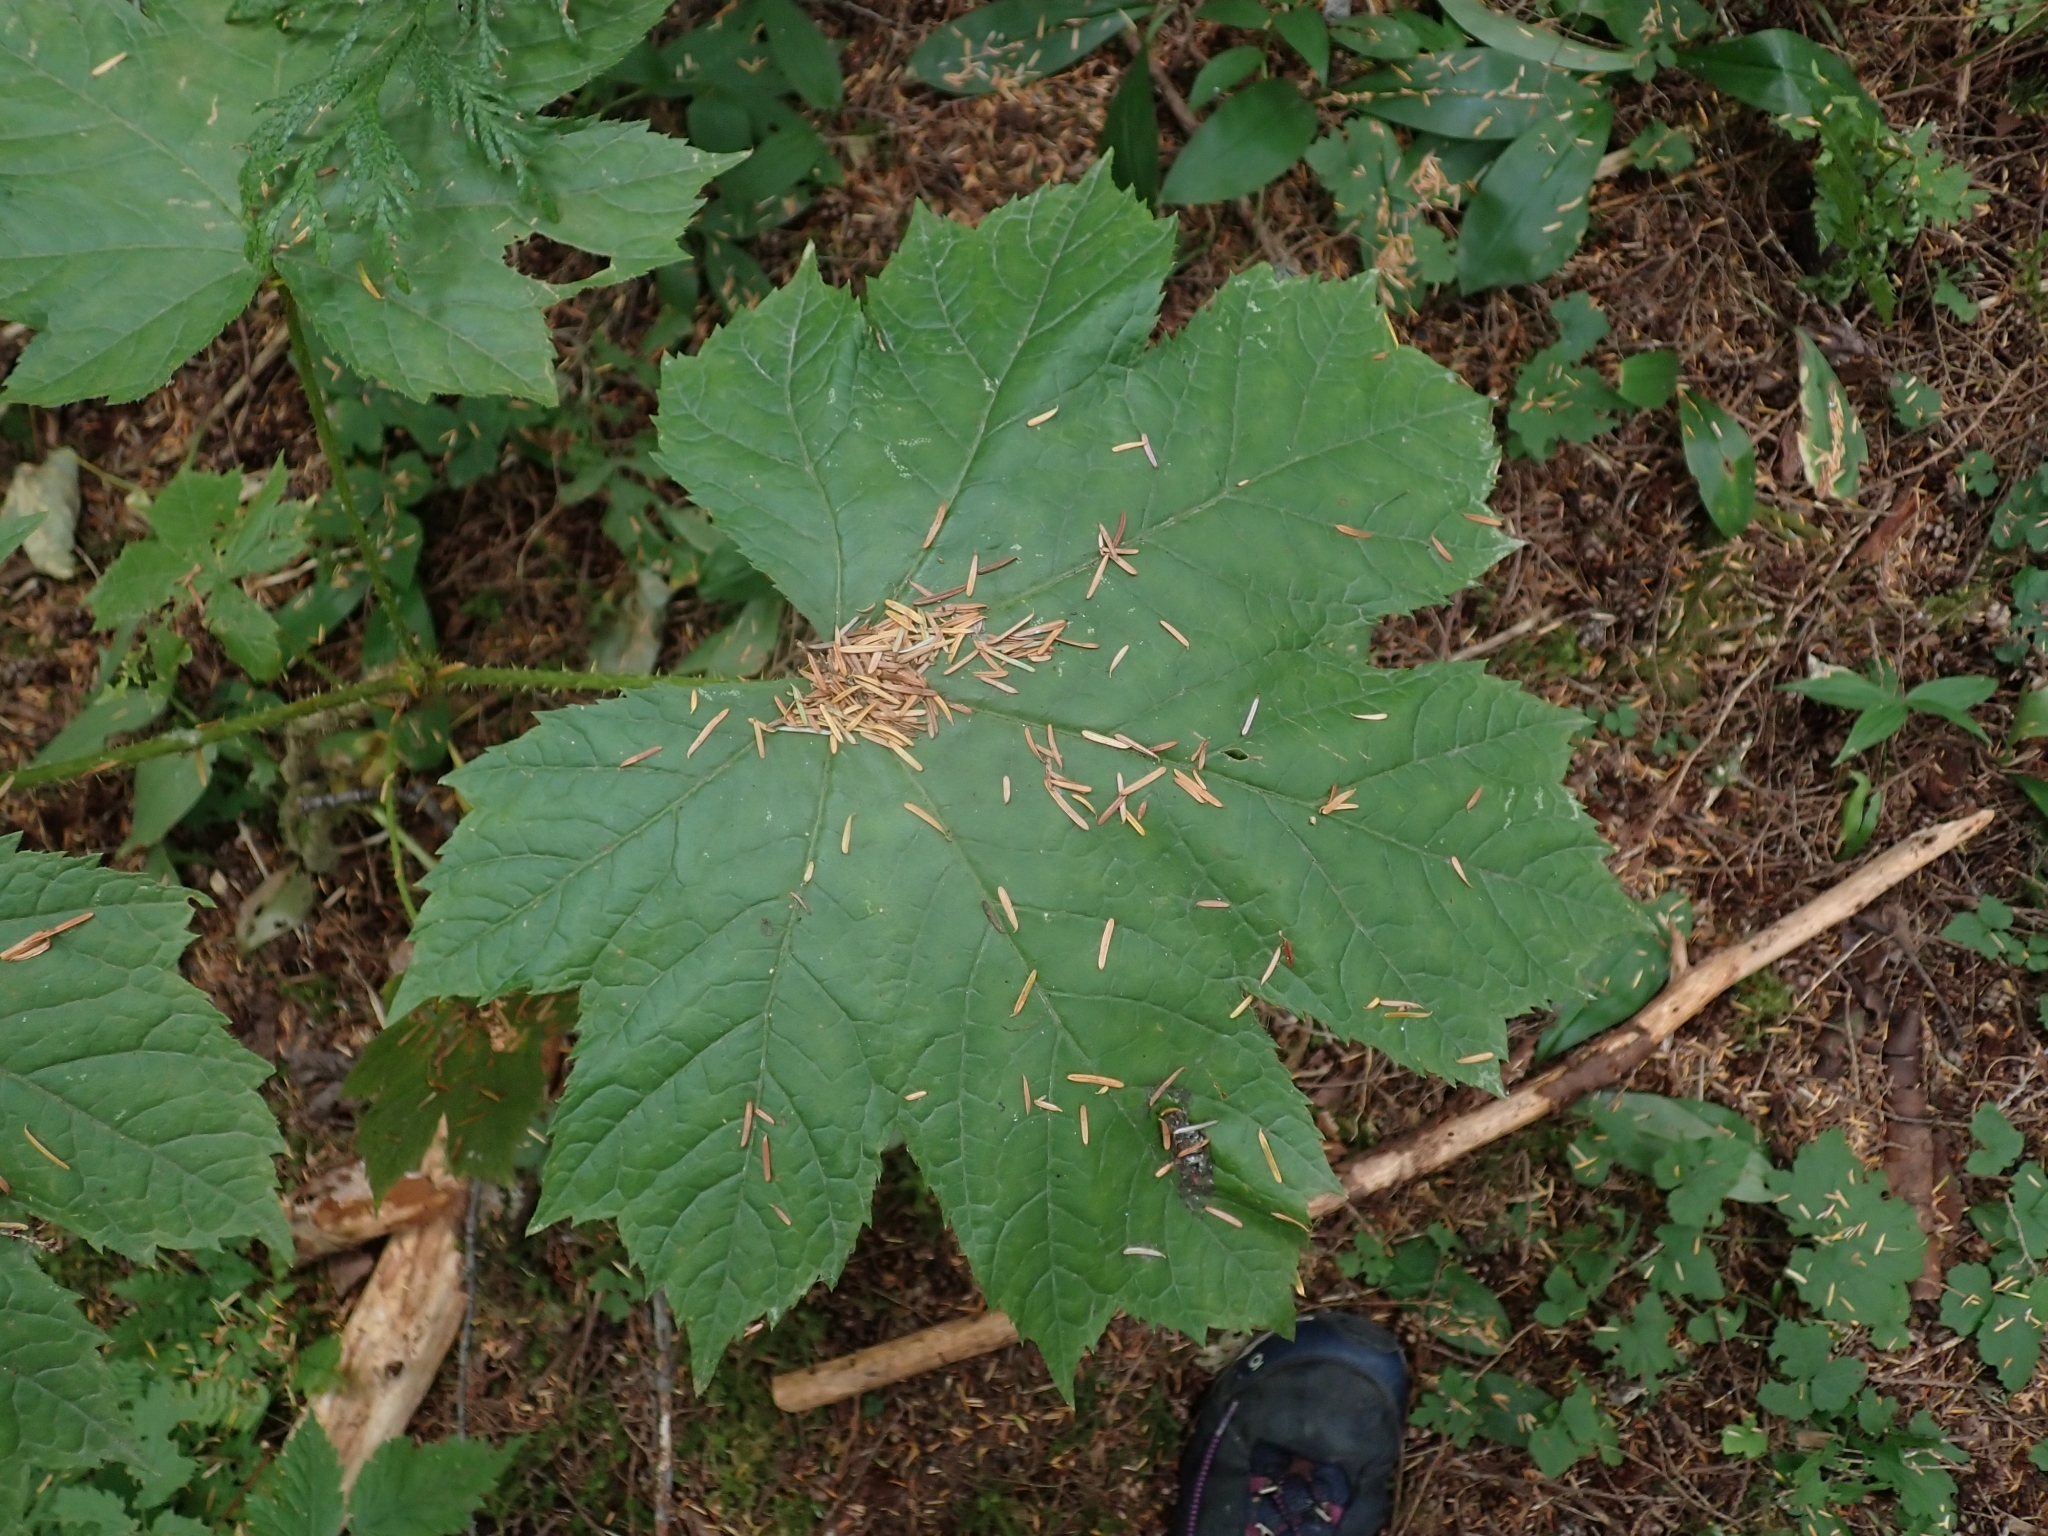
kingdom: Plantae
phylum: Tracheophyta
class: Magnoliopsida
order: Apiales
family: Araliaceae
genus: Oplopanax
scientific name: Oplopanax horridus
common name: Devil's walking-stick
